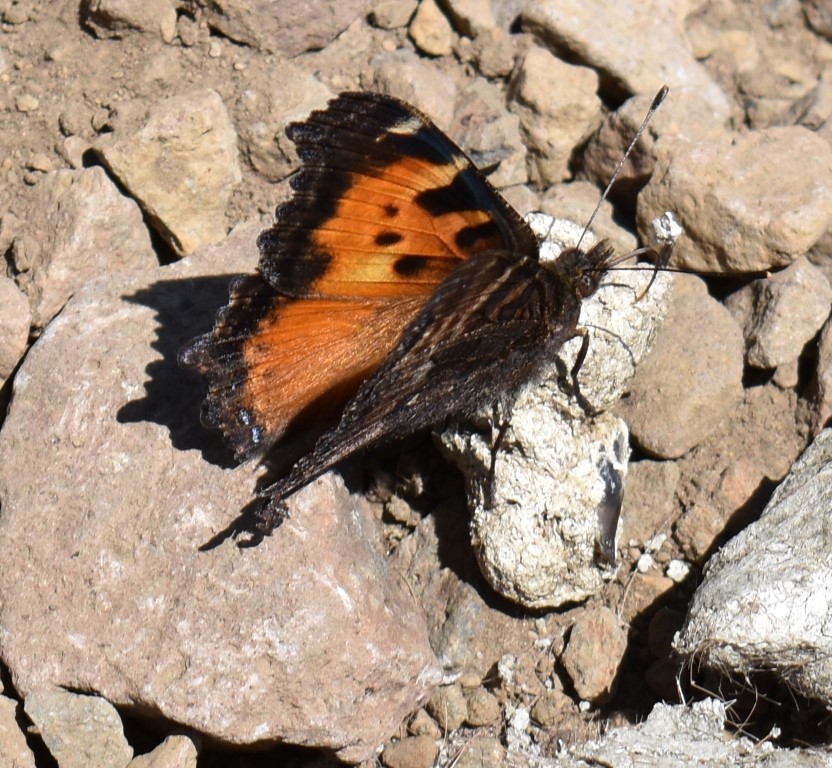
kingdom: Animalia
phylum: Arthropoda
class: Insecta
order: Lepidoptera
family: Nymphalidae
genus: Nymphalis
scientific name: Nymphalis californica
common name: California tortoiseshell
